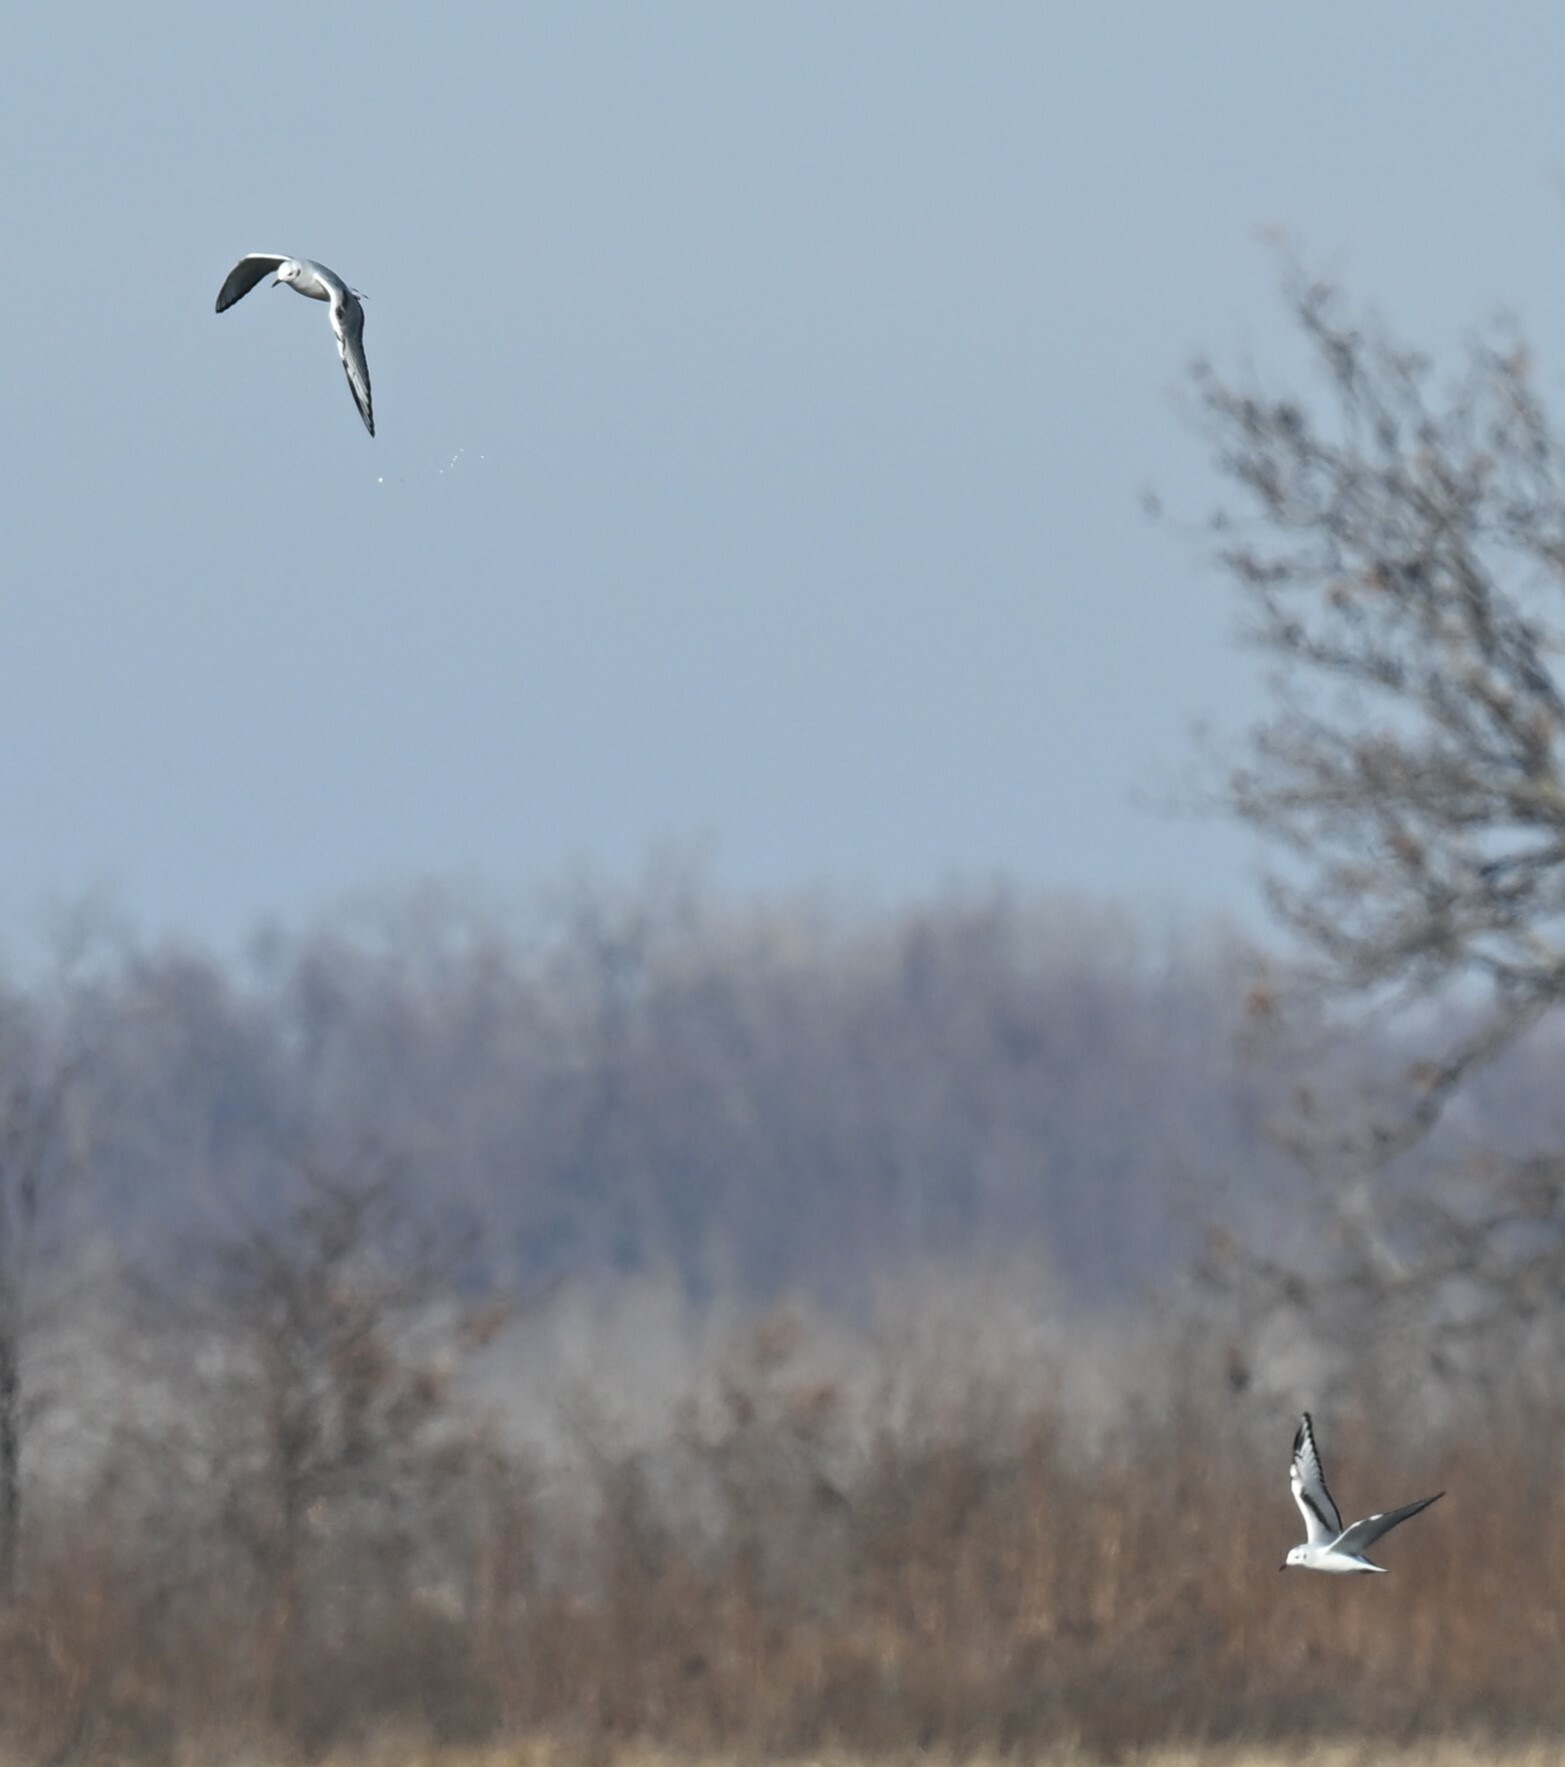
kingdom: Animalia
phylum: Chordata
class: Aves
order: Charadriiformes
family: Laridae
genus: Chroicocephalus
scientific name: Chroicocephalus philadelphia
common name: Bonaparte's gull
